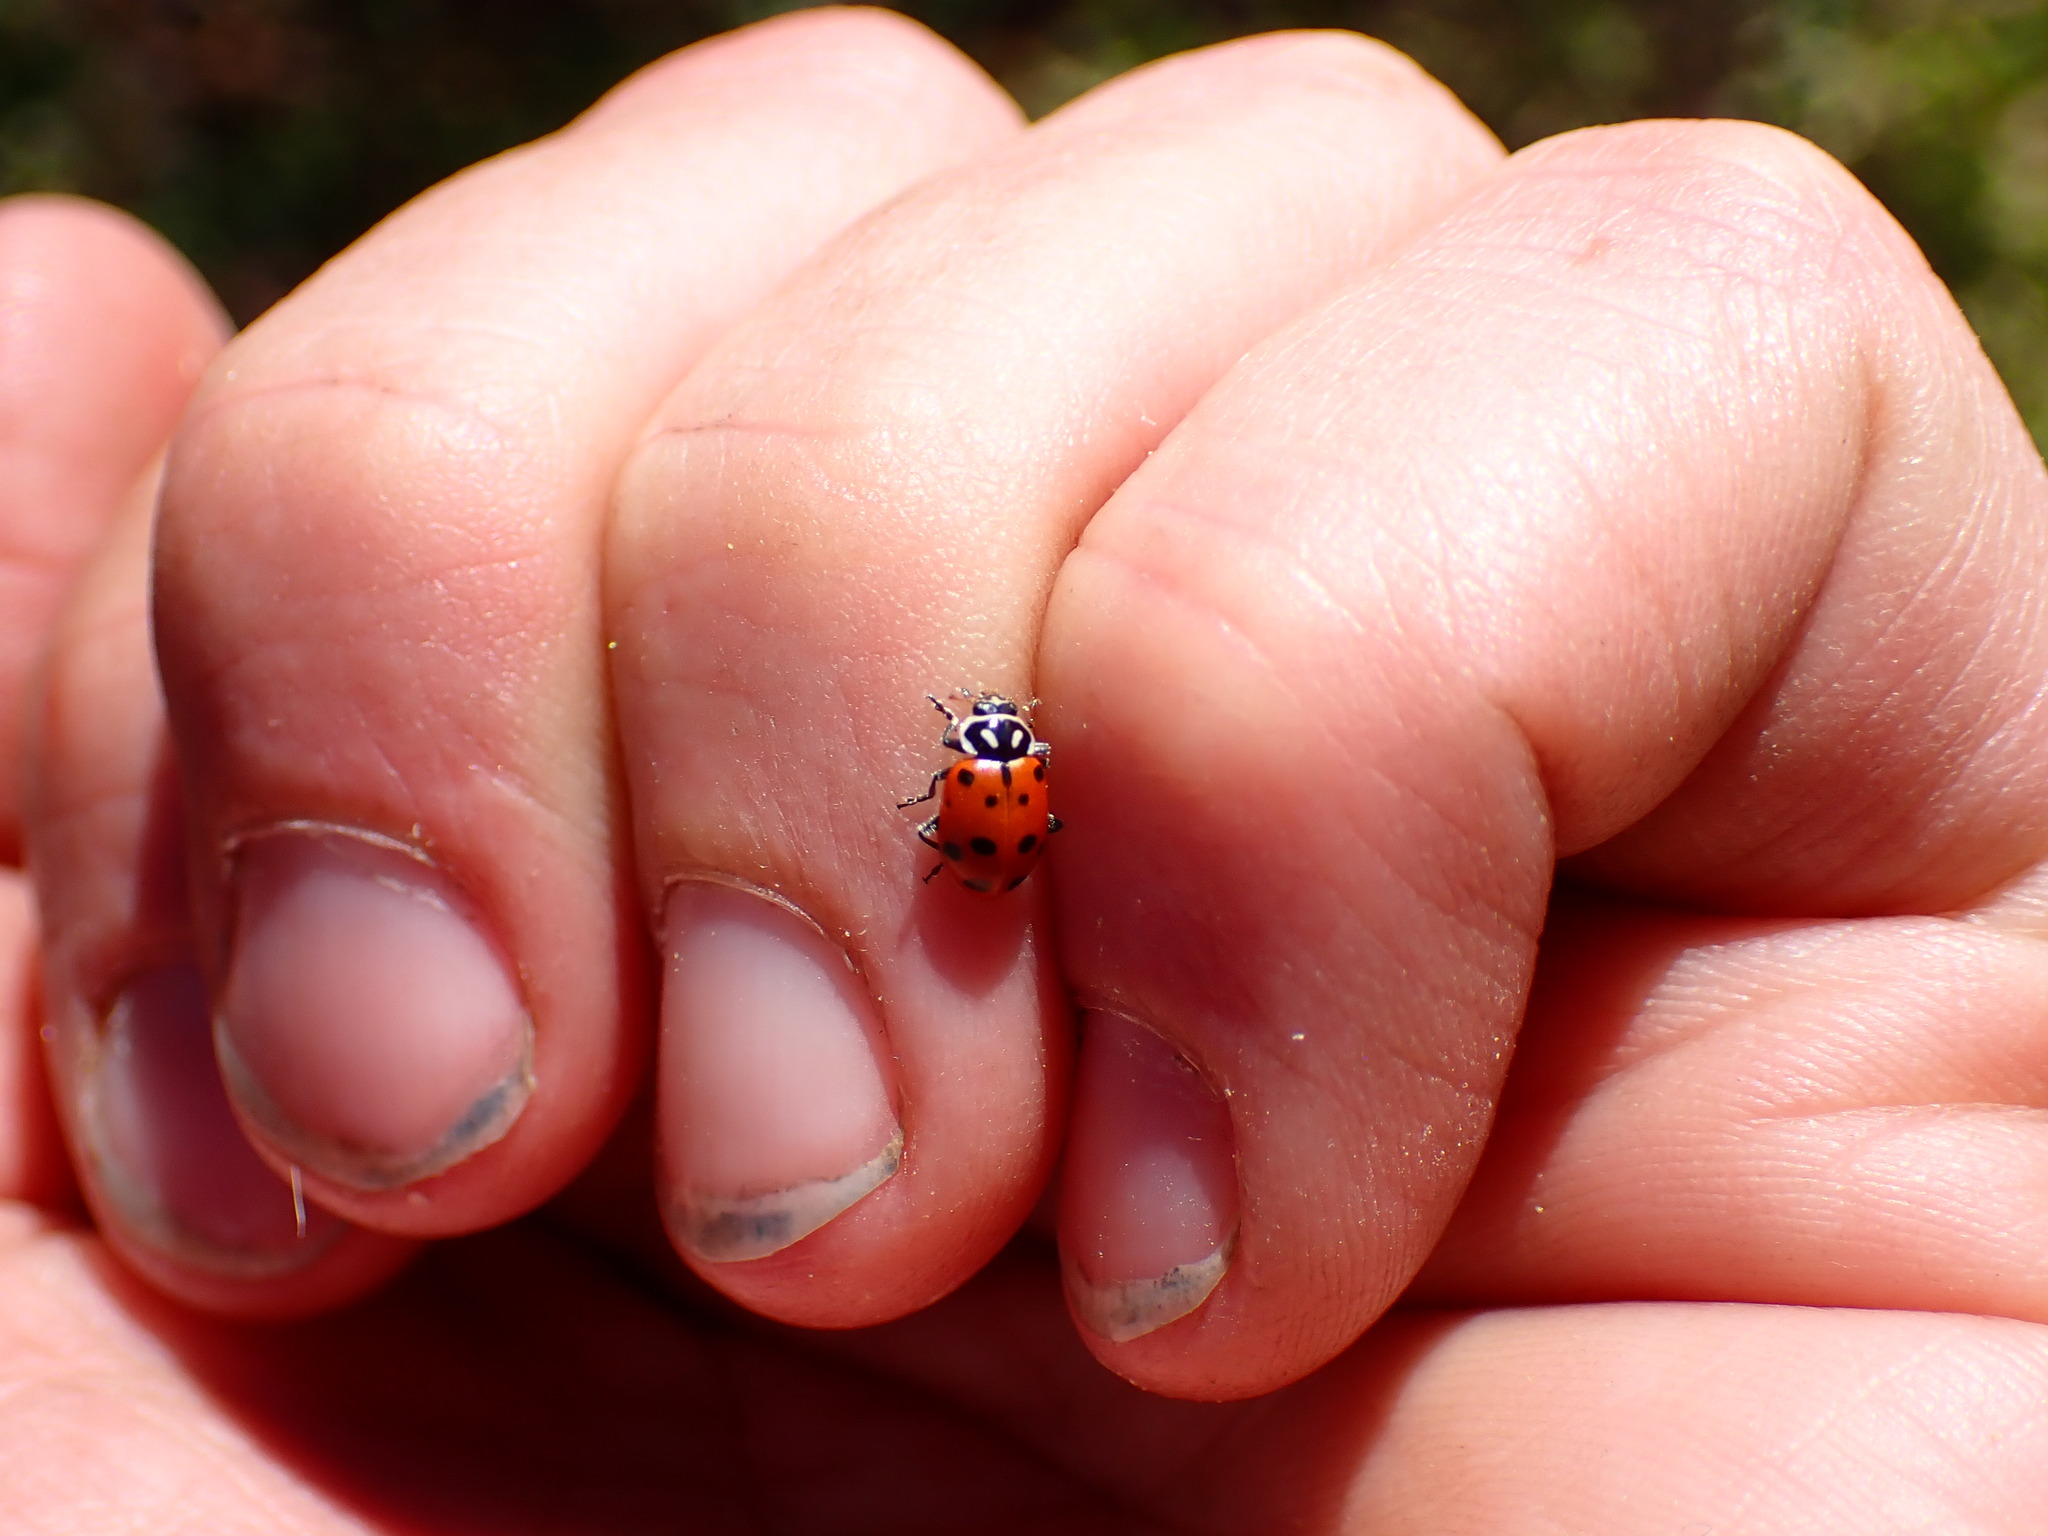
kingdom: Animalia
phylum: Arthropoda
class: Insecta
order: Coleoptera
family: Coccinellidae
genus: Hippodamia
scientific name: Hippodamia convergens
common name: Convergent lady beetle
